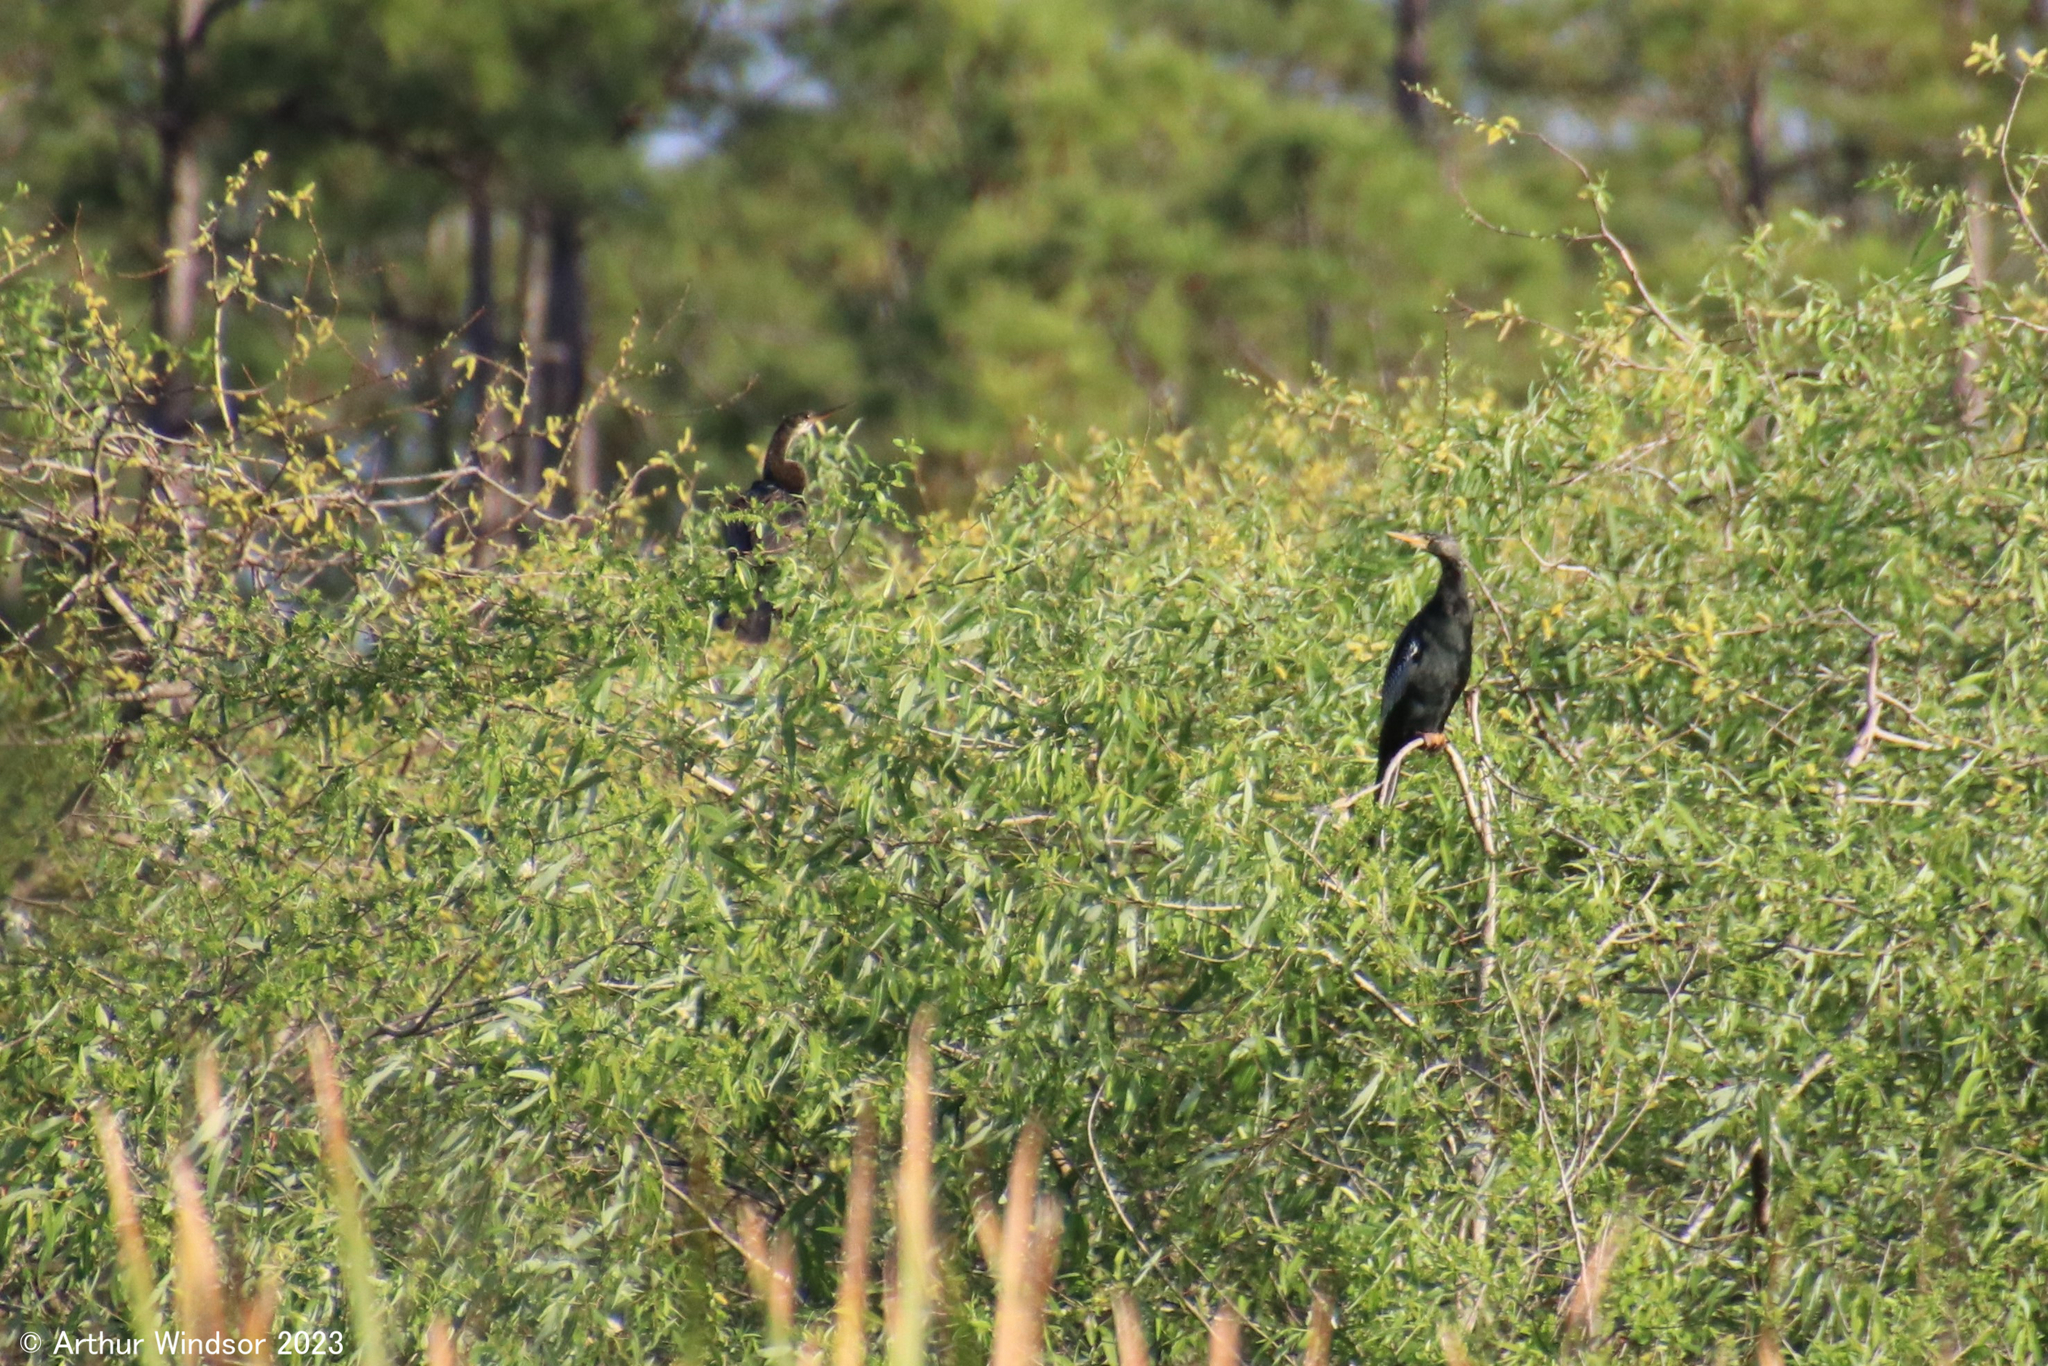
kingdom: Animalia
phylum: Chordata
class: Aves
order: Suliformes
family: Anhingidae
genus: Anhinga
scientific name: Anhinga anhinga
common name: Anhinga
